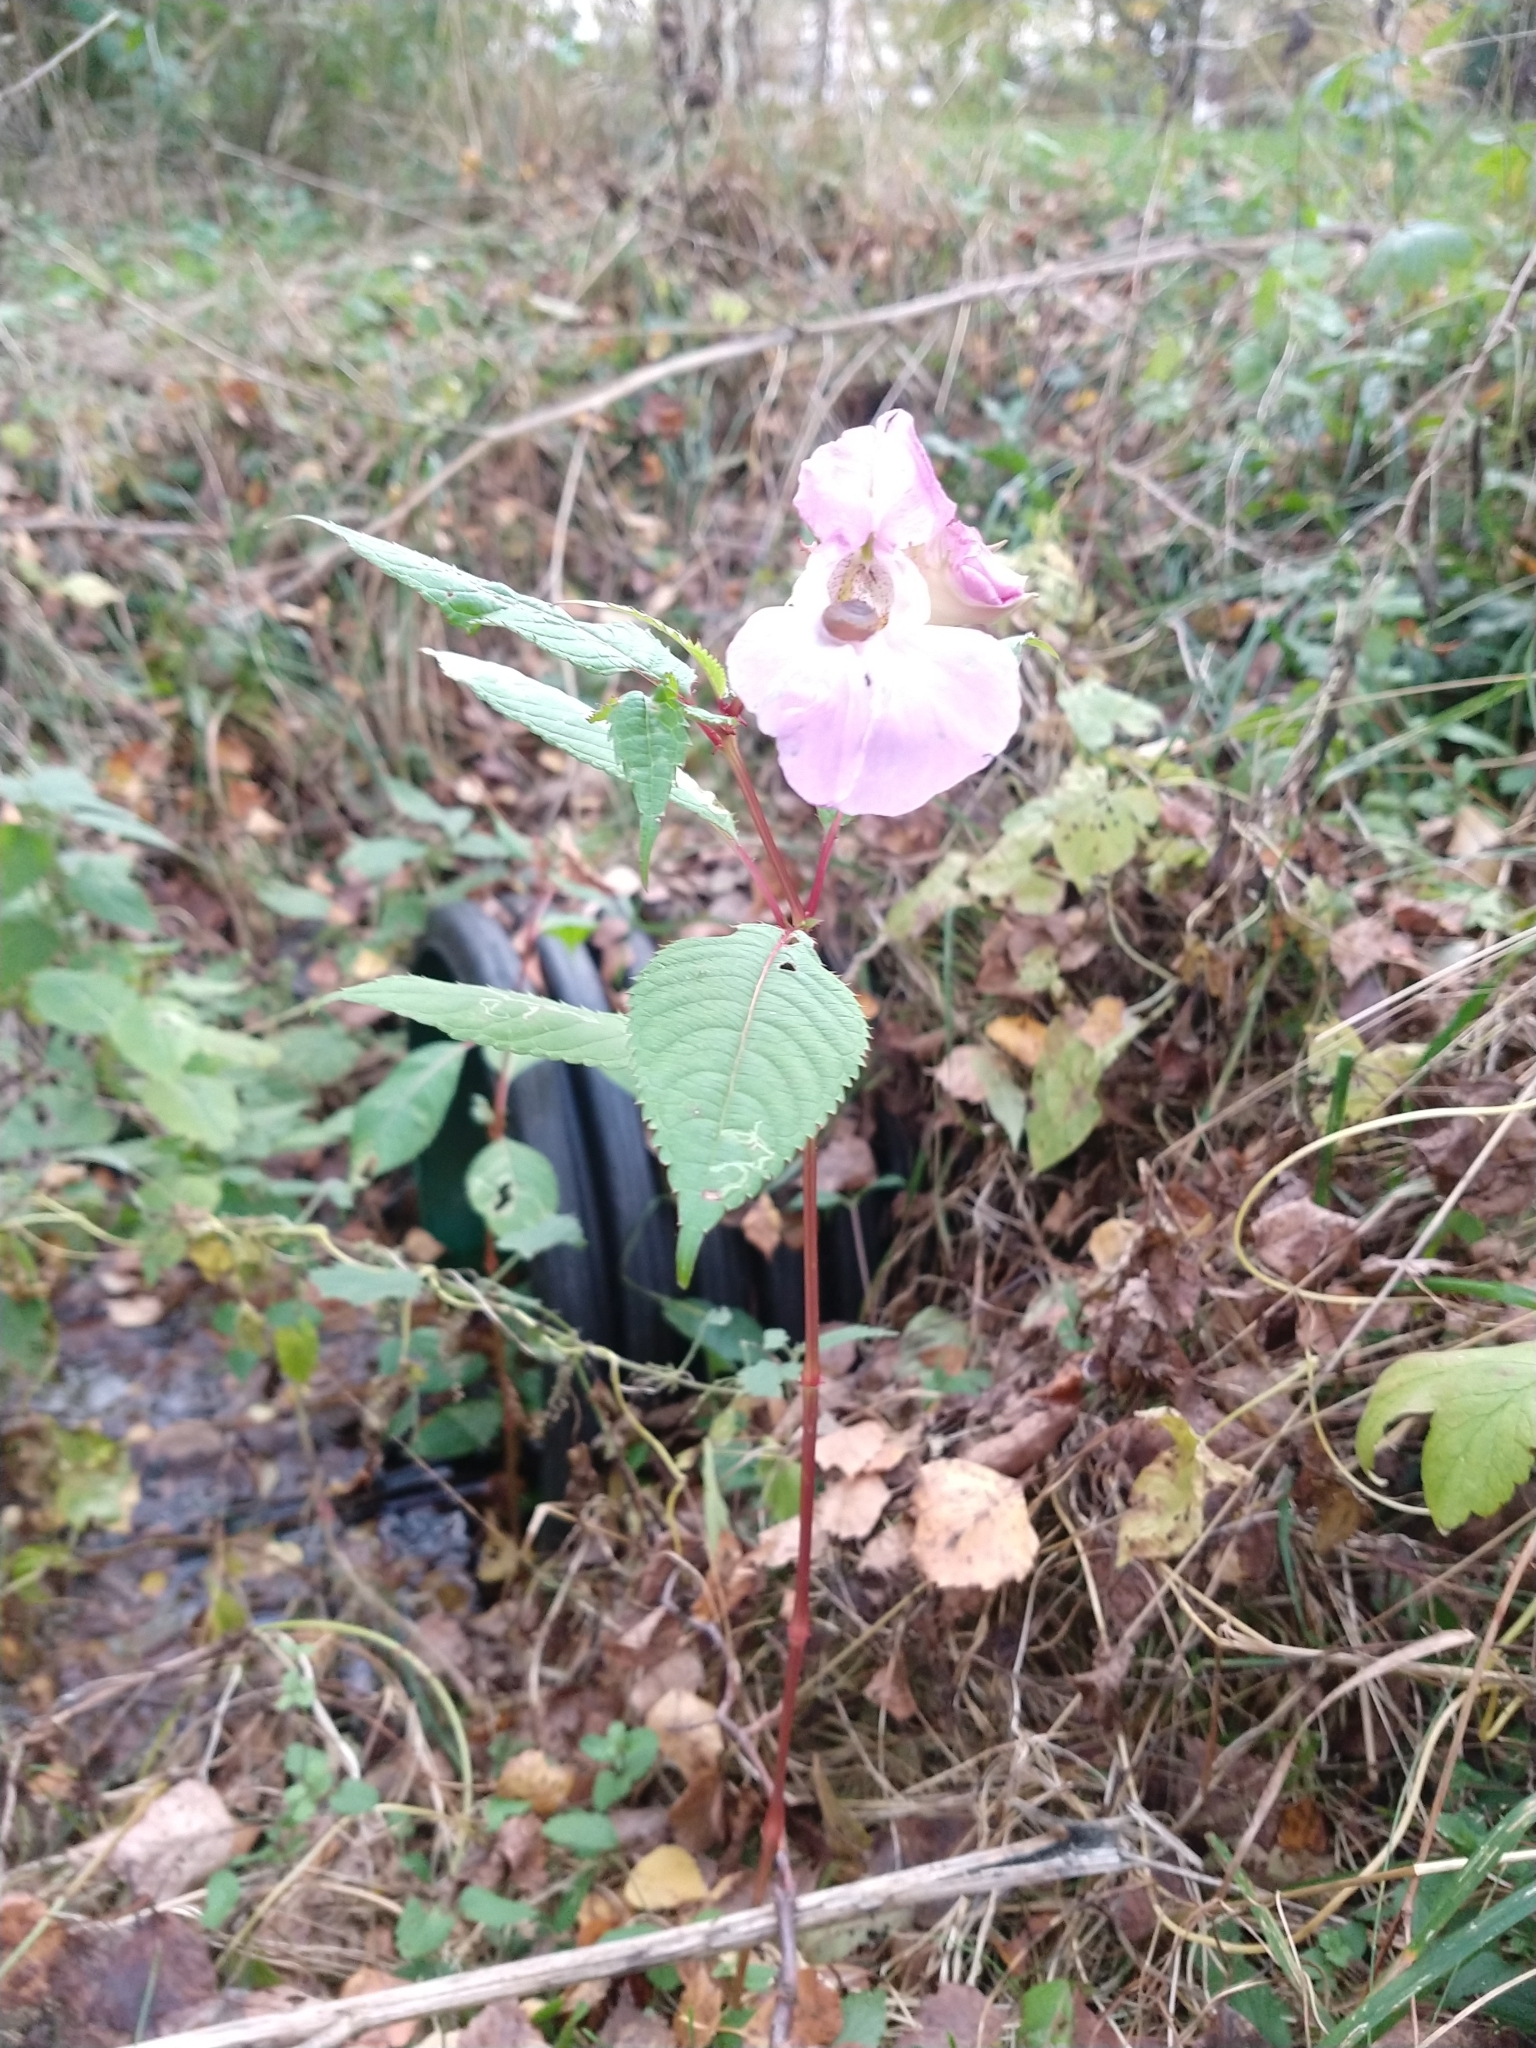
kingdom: Plantae
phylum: Tracheophyta
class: Magnoliopsida
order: Ericales
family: Balsaminaceae
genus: Impatiens
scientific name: Impatiens glandulifera
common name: Himalayan balsam
